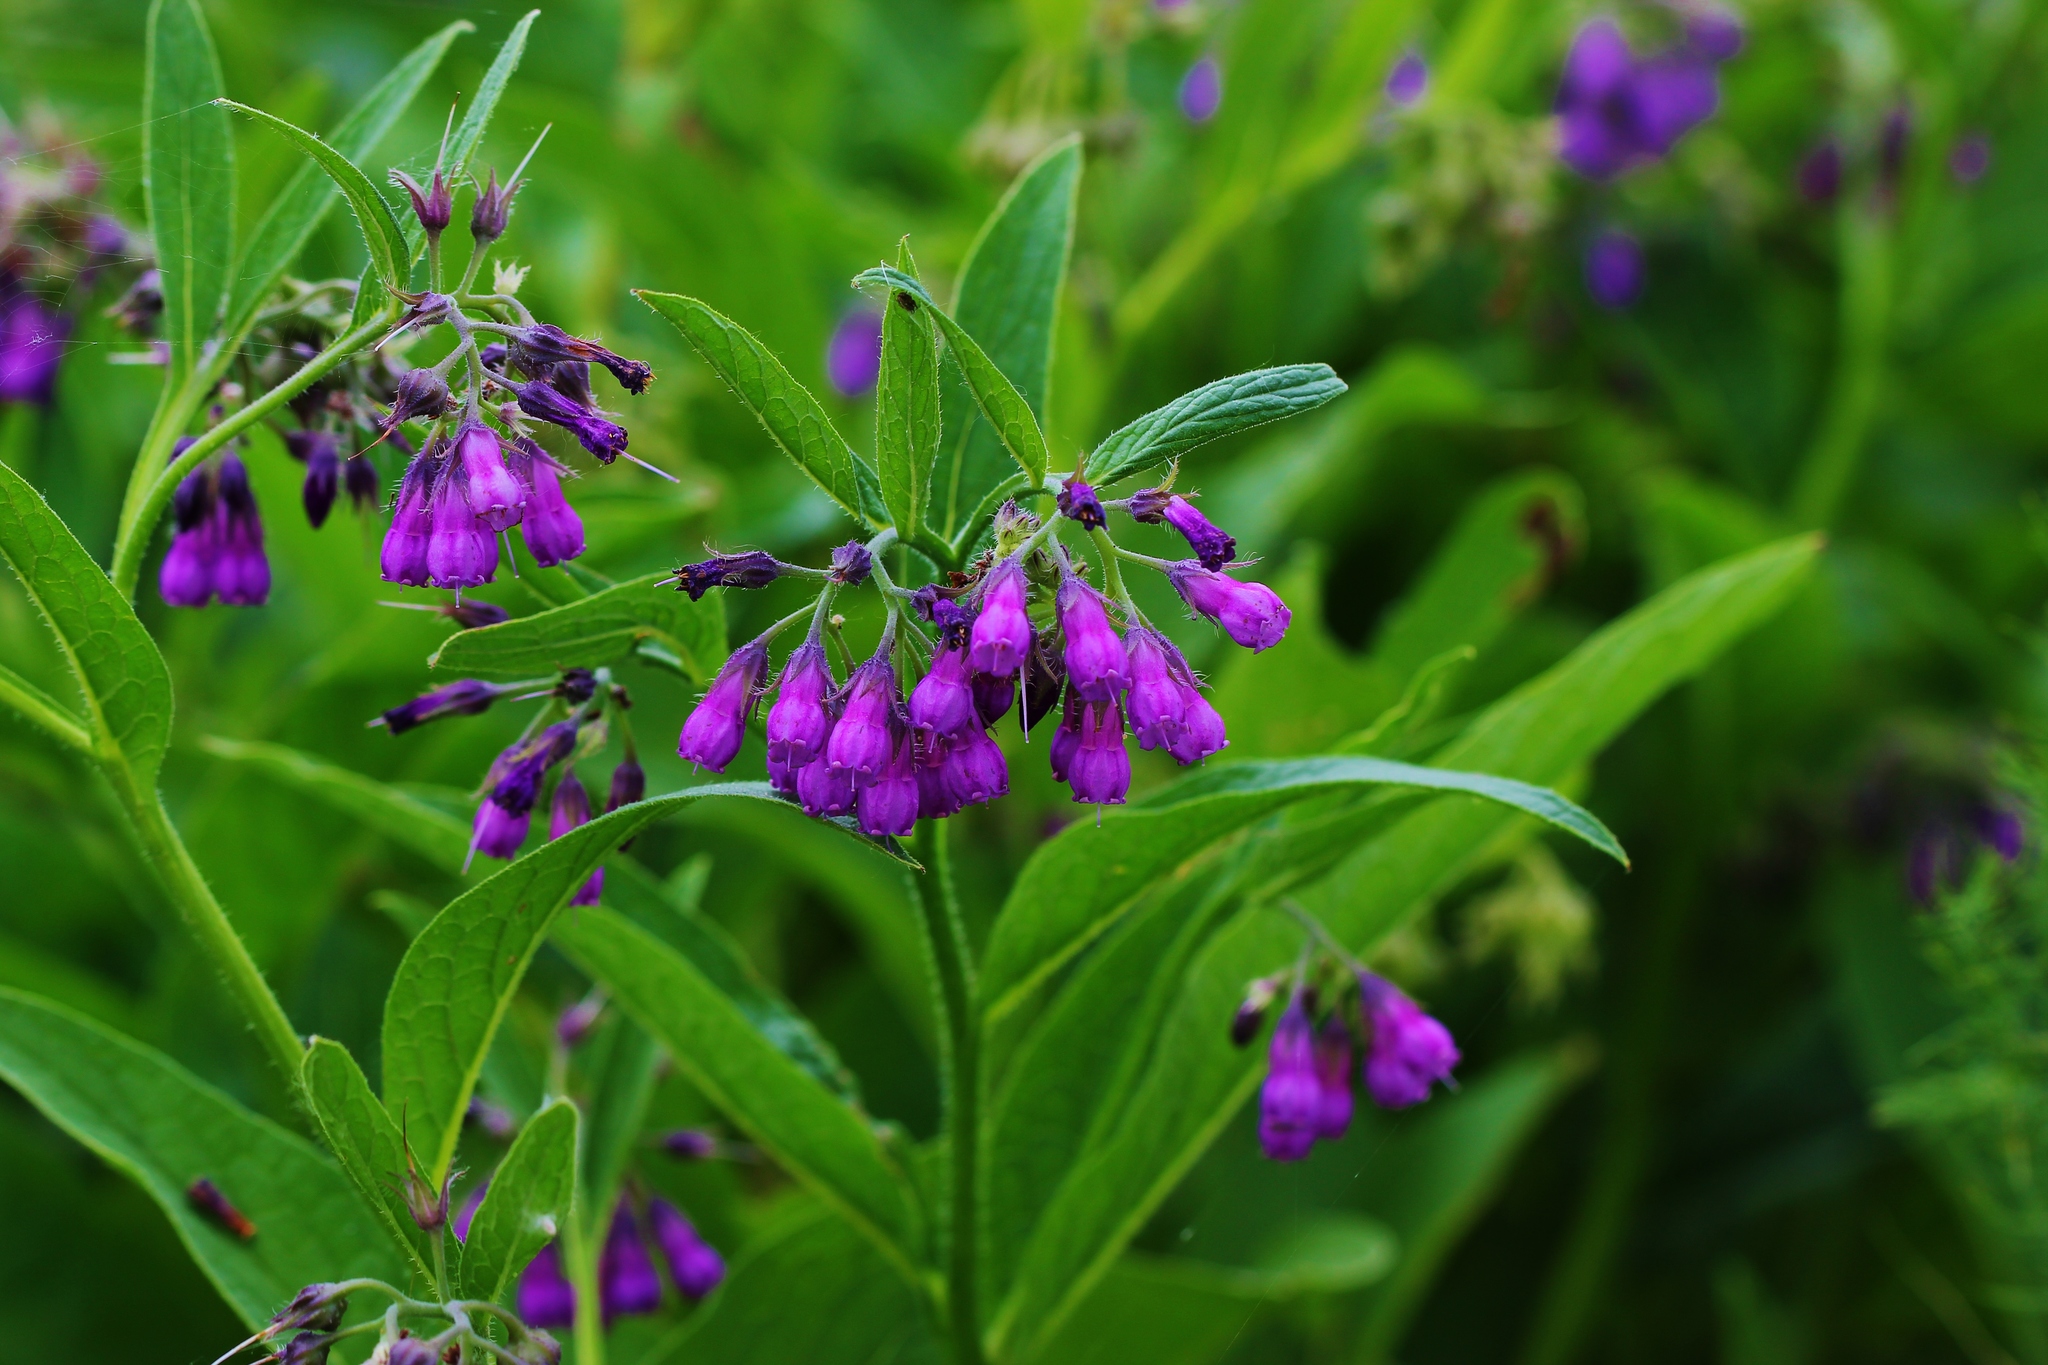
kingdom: Plantae
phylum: Tracheophyta
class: Magnoliopsida
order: Boraginales
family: Boraginaceae
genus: Symphytum
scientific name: Symphytum officinale
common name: Common comfrey
